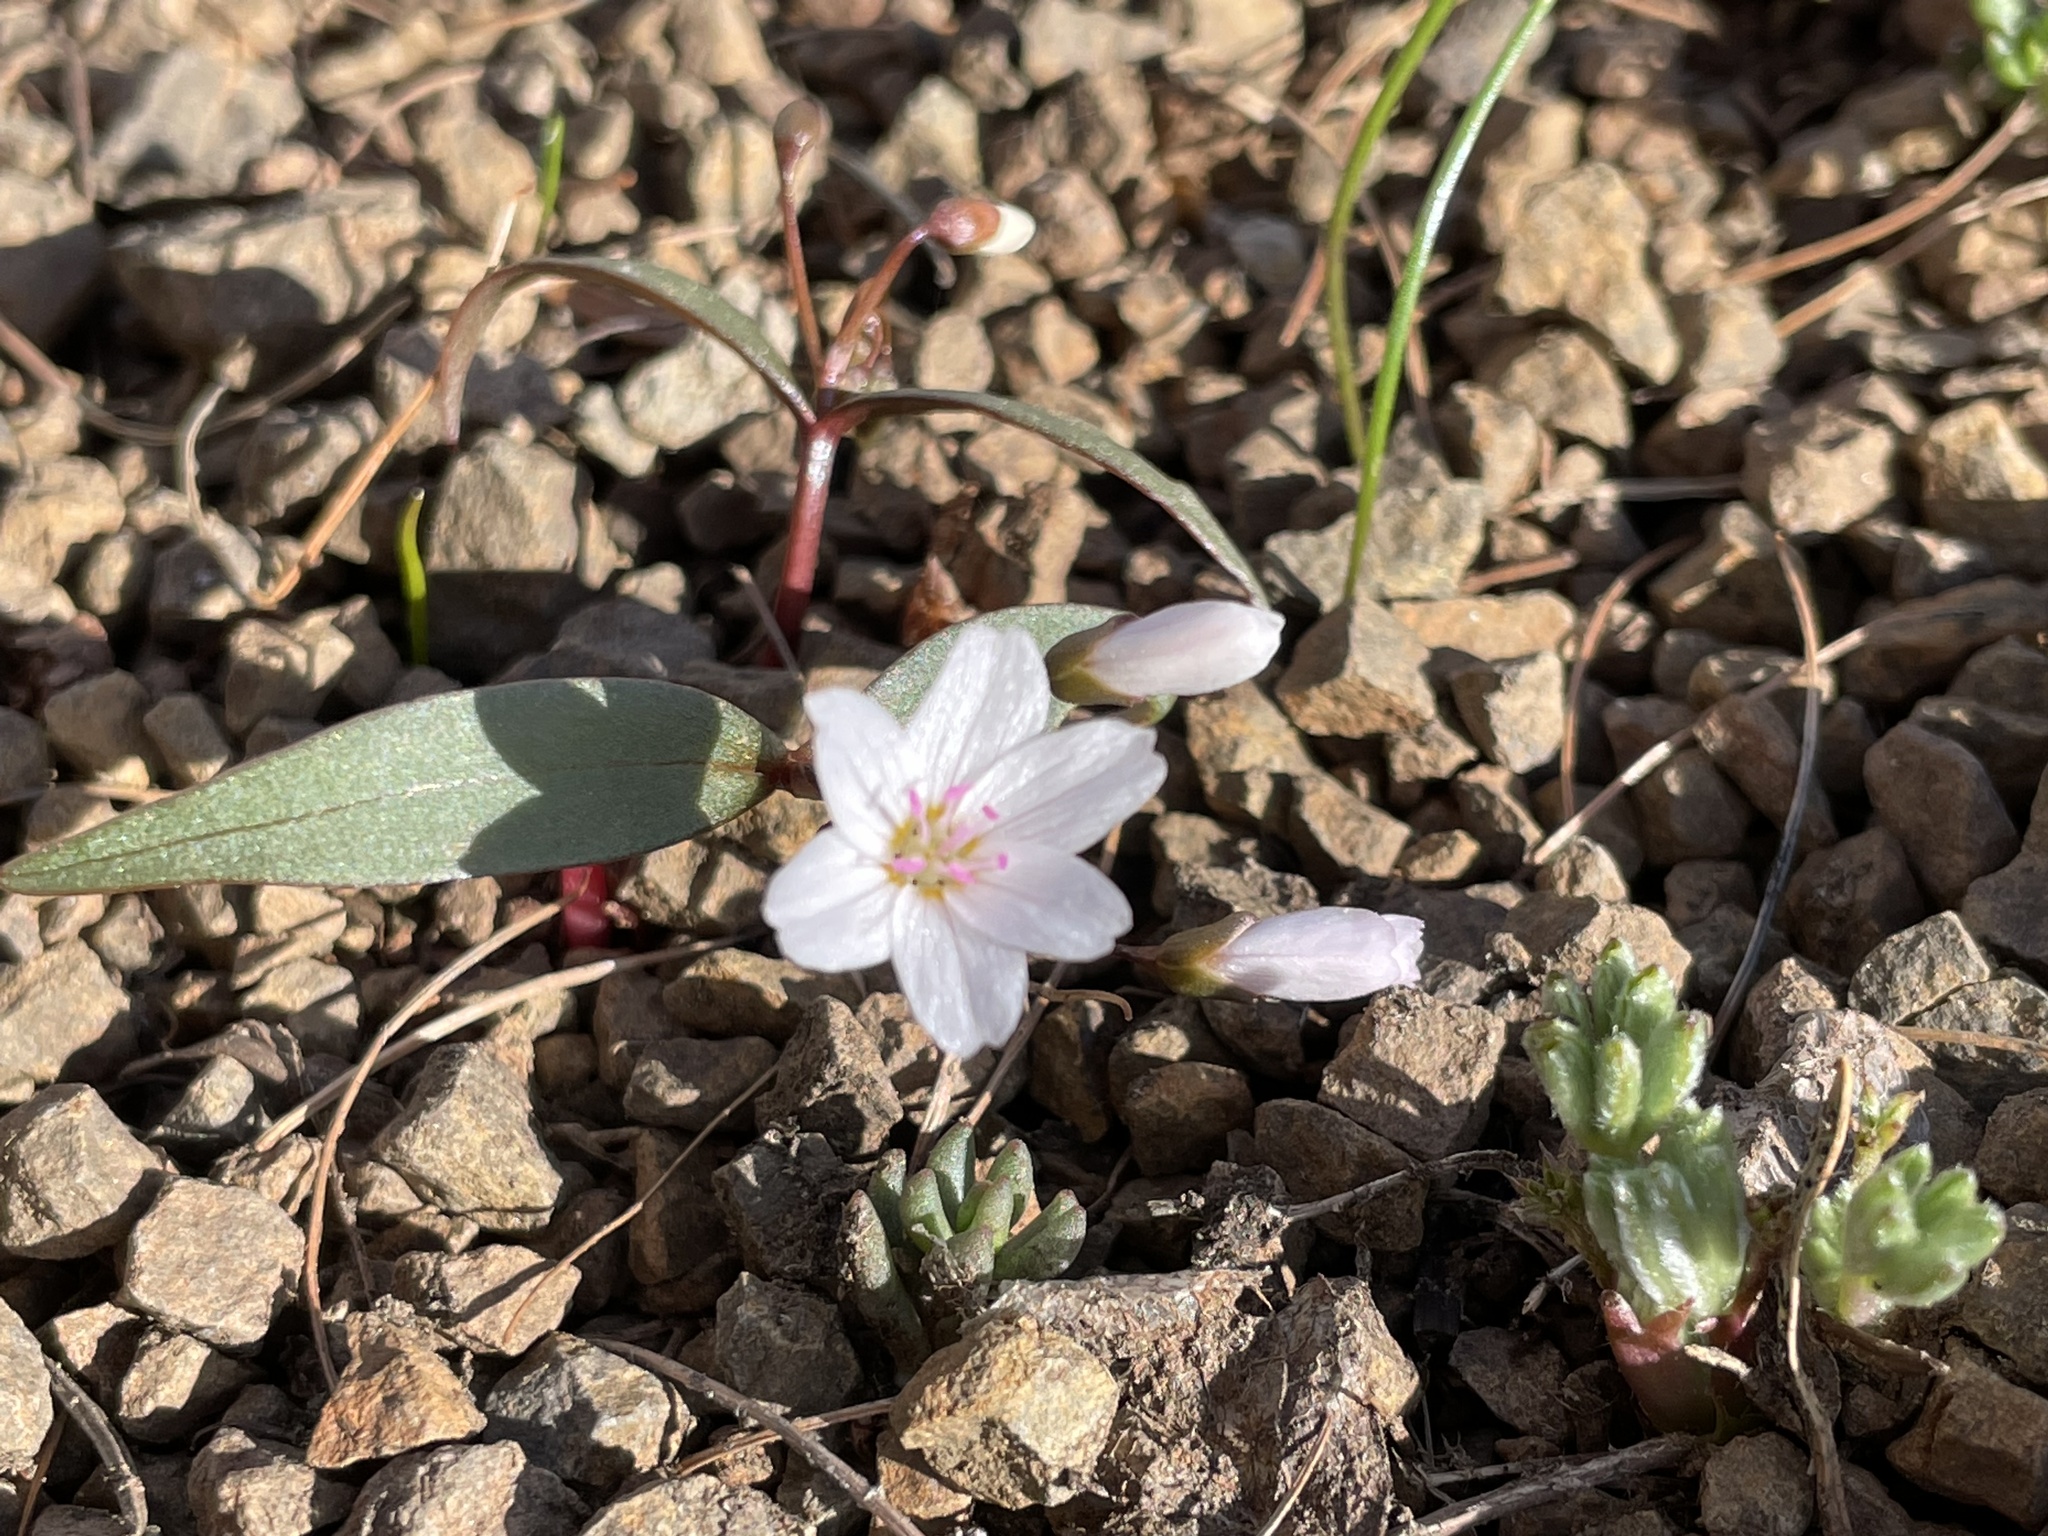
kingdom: Plantae
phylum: Tracheophyta
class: Magnoliopsida
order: Caryophyllales
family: Montiaceae
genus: Claytonia
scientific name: Claytonia lanceolata
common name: Western spring-beauty
